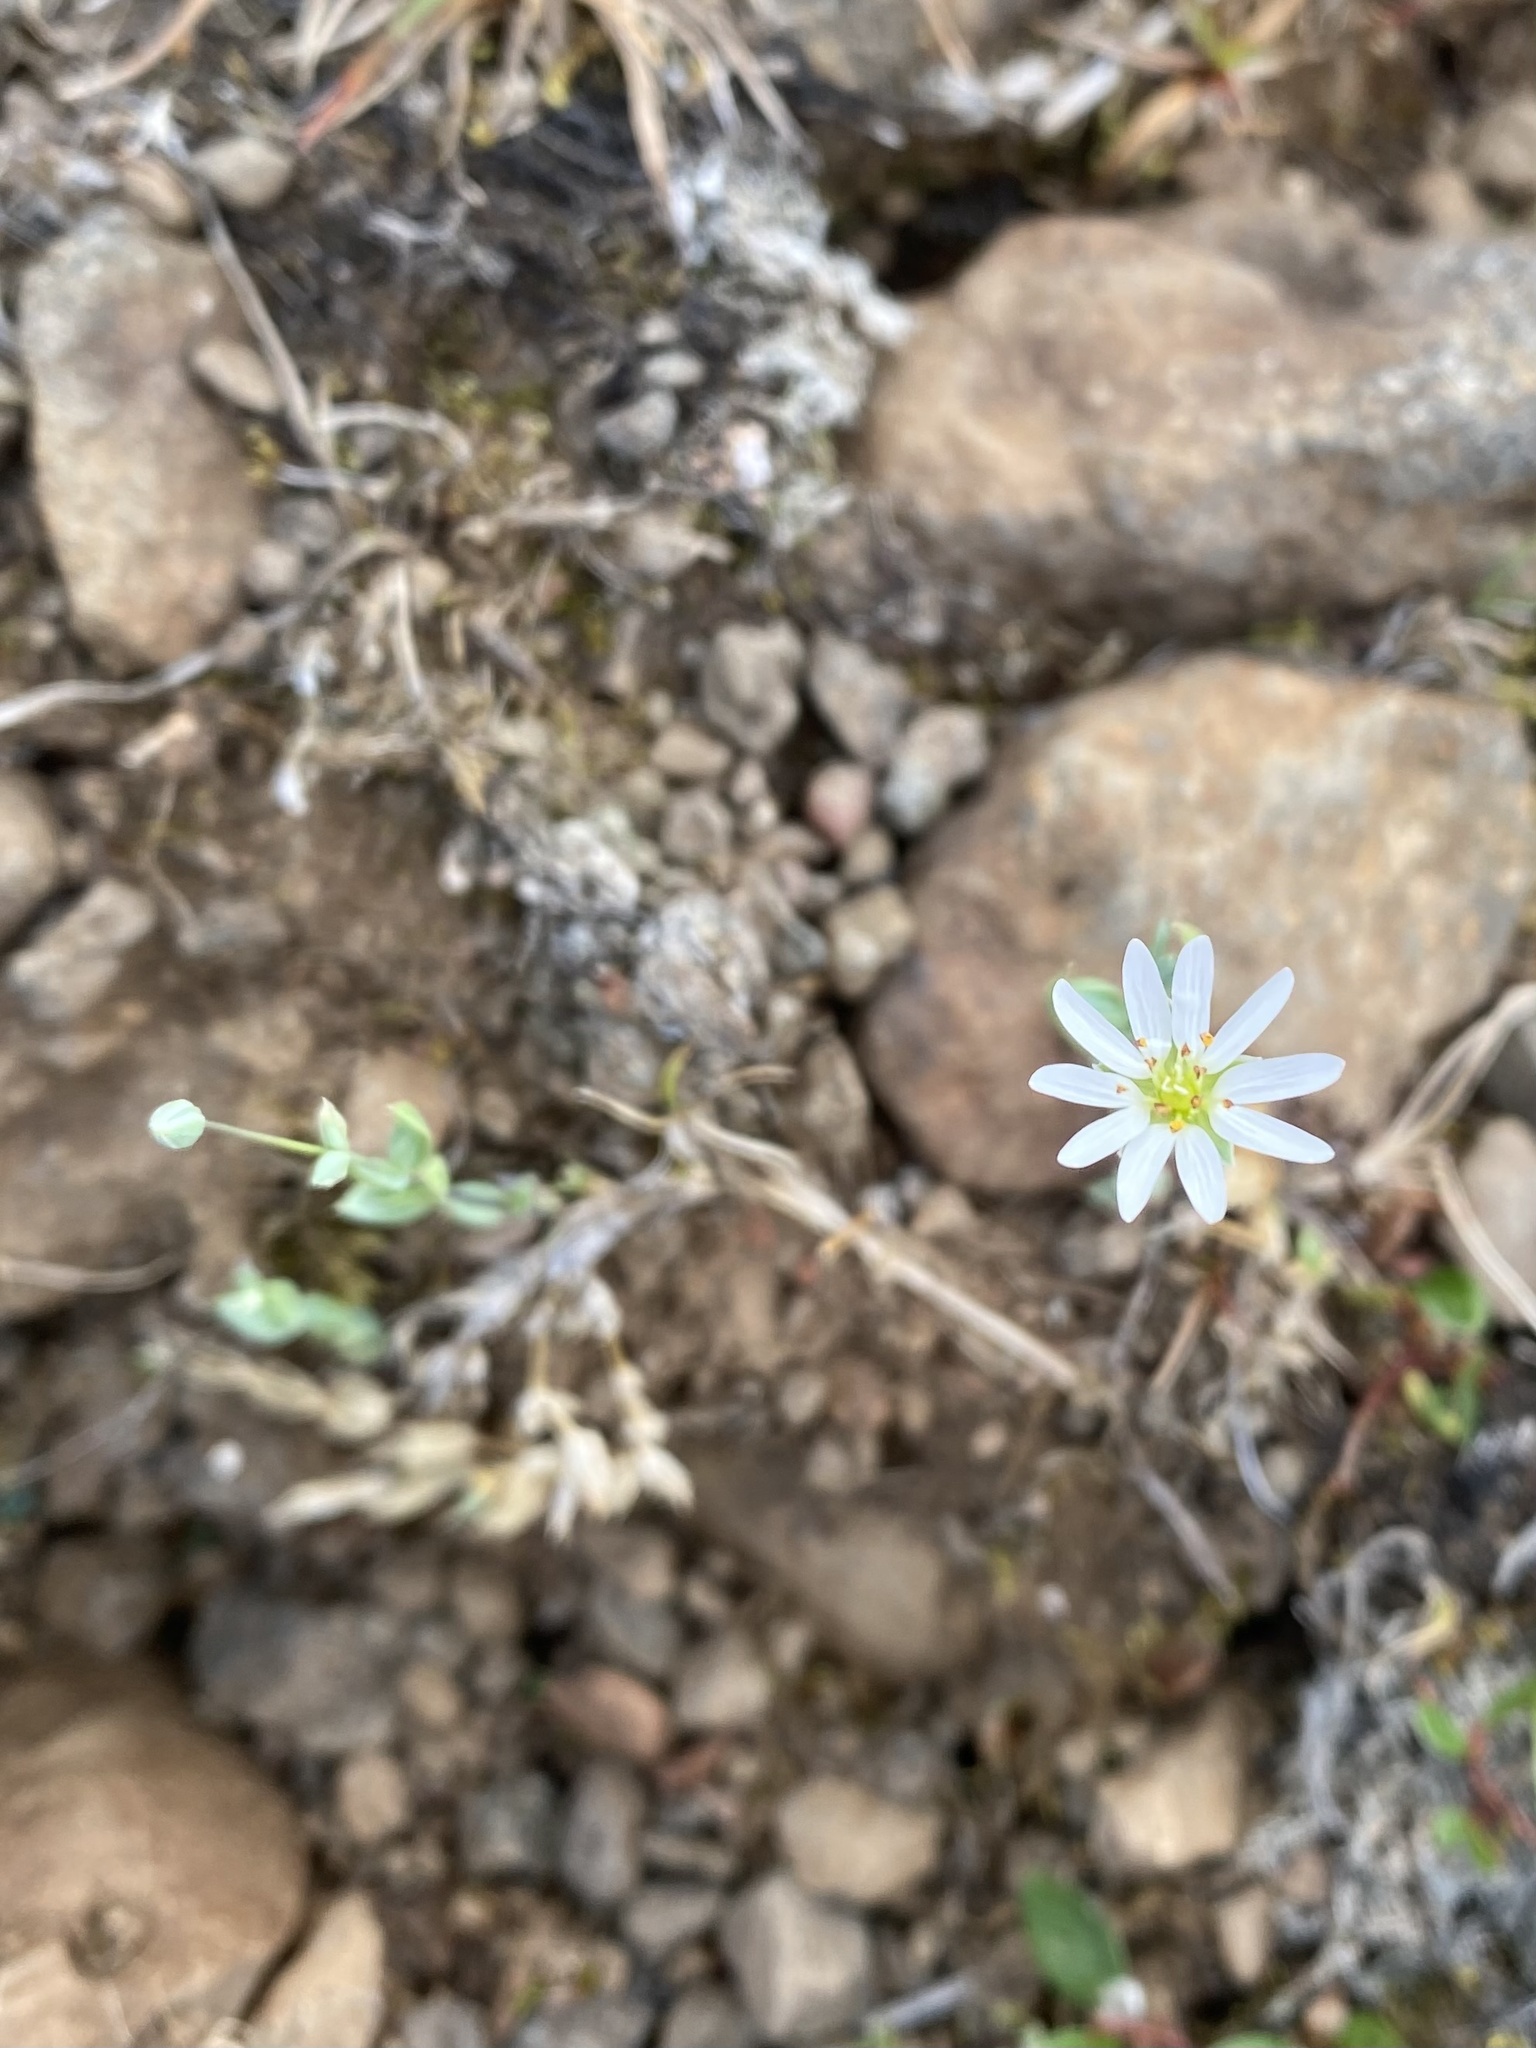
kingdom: Plantae
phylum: Tracheophyta
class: Magnoliopsida
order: Caryophyllales
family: Caryophyllaceae
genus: Stellaria
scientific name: Stellaria longipes
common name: Goldie's starwort
